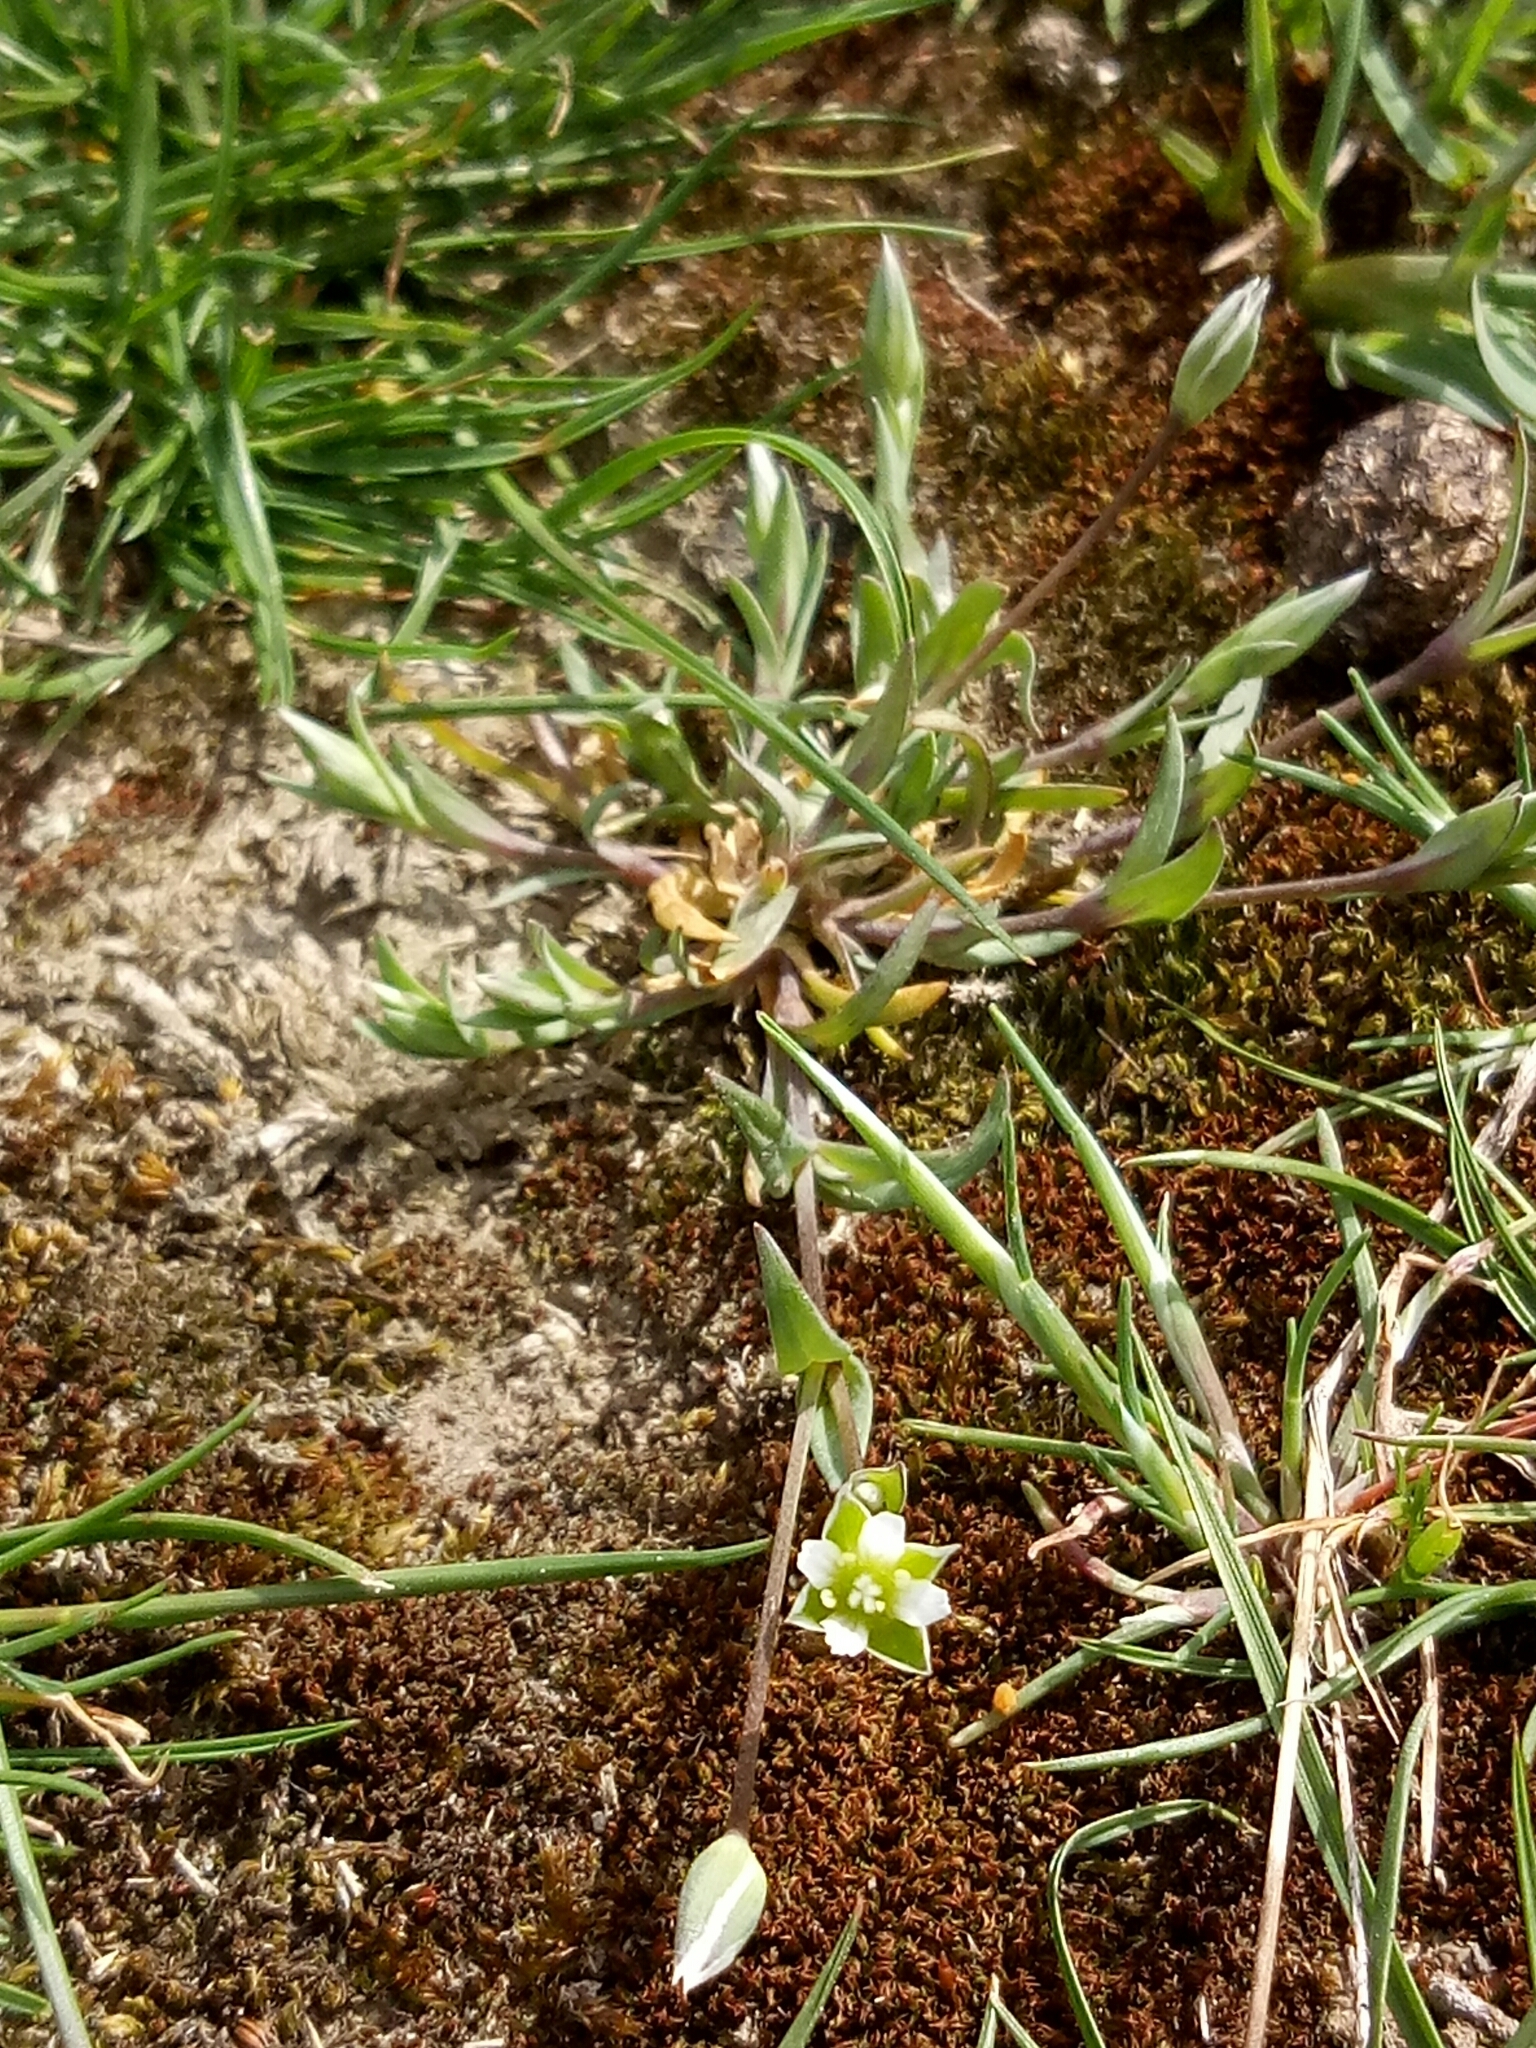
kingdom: Plantae
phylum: Tracheophyta
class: Magnoliopsida
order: Caryophyllales
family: Caryophyllaceae
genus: Stellaria
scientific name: Stellaria alsine
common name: Bog stitchwort
